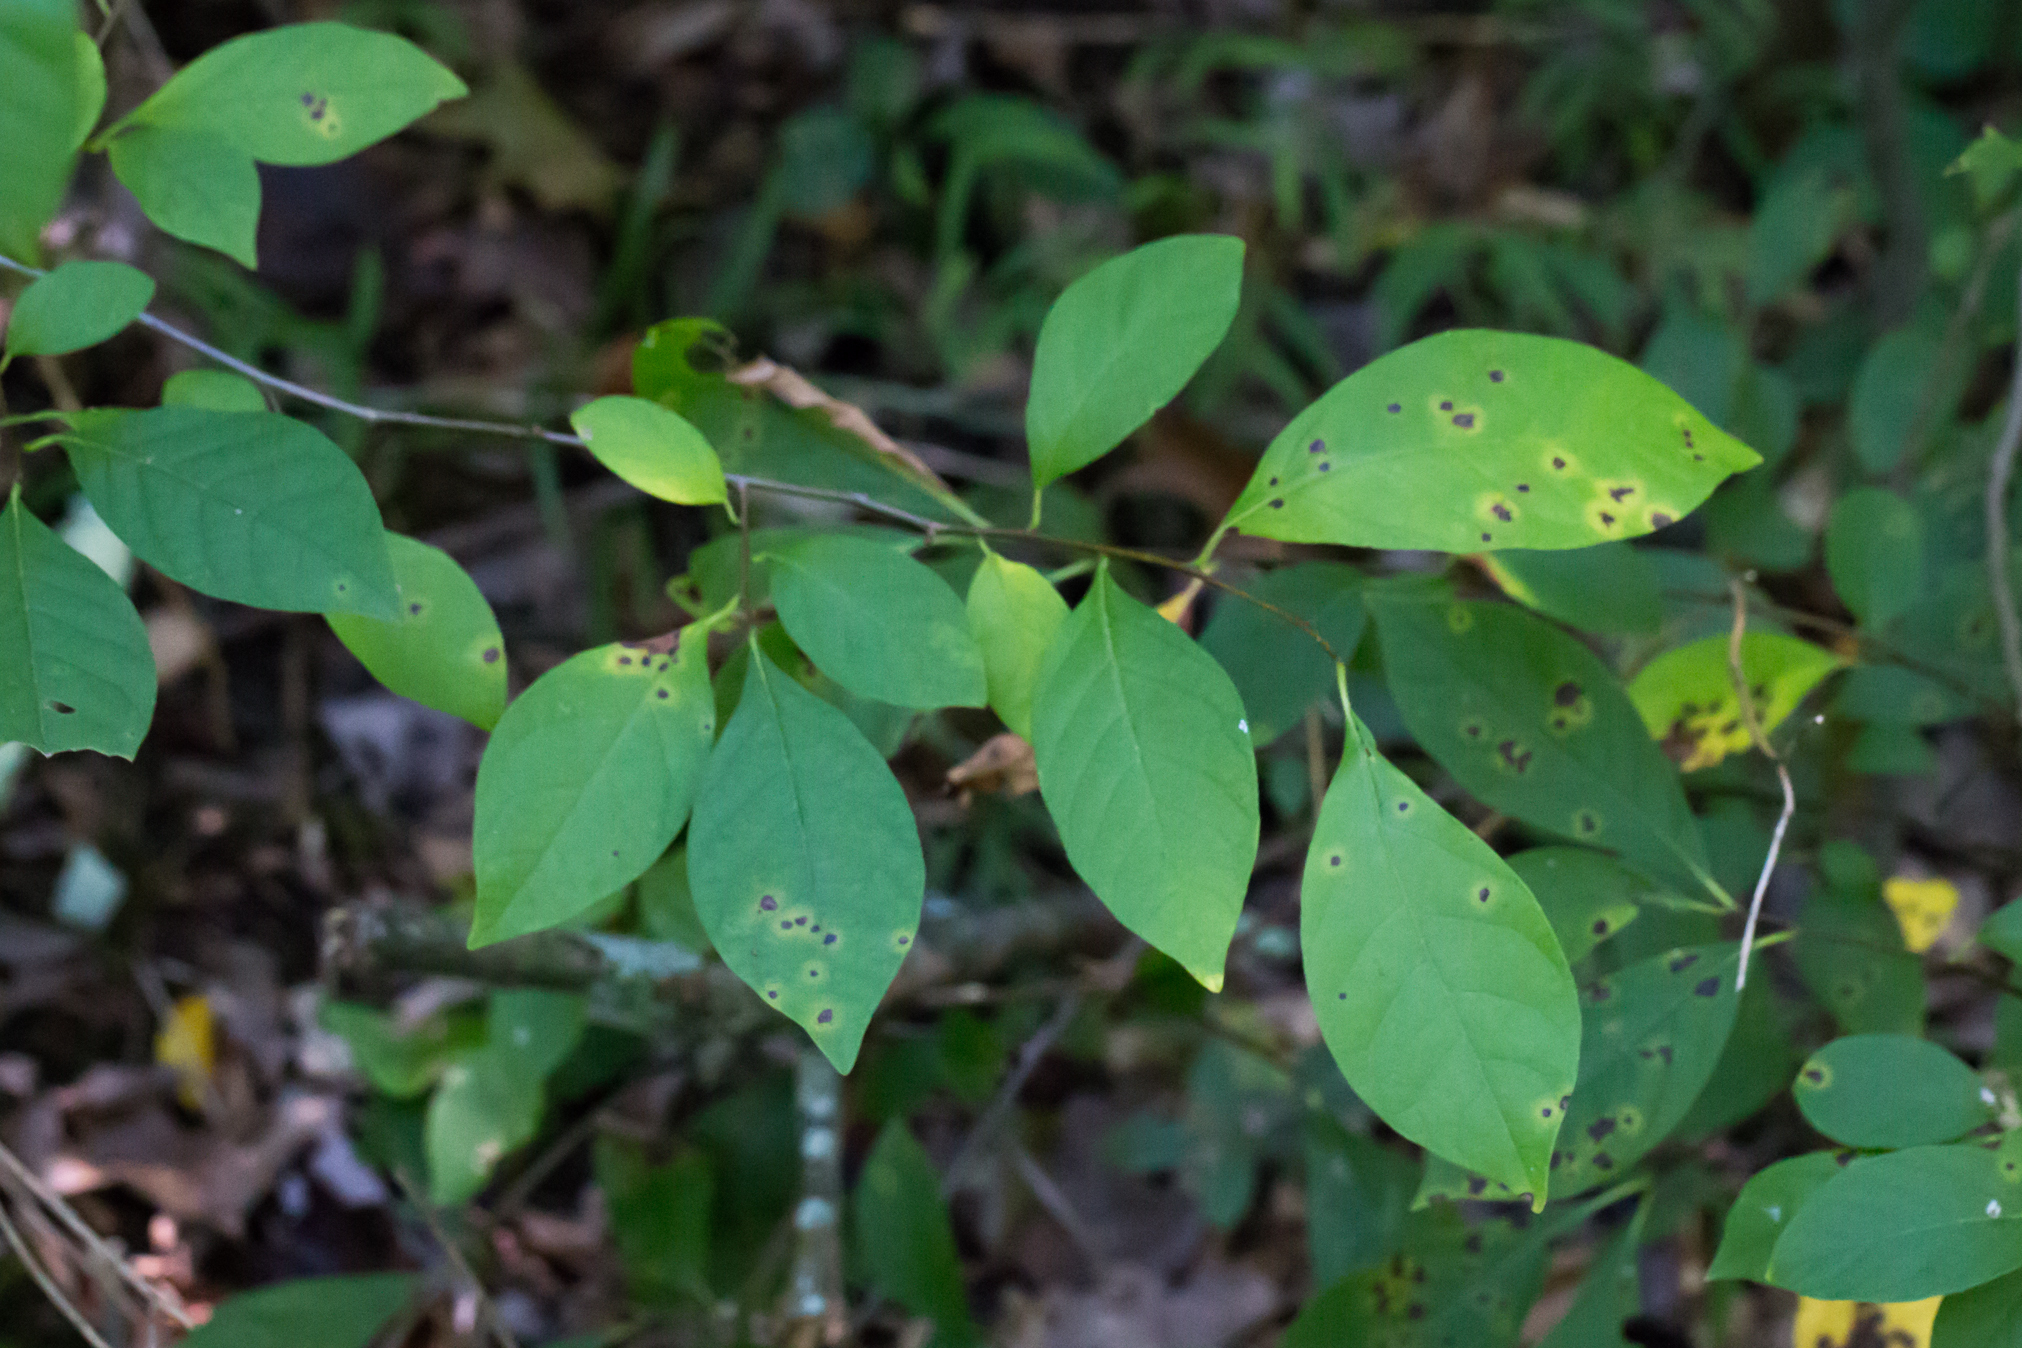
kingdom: Plantae
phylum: Tracheophyta
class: Magnoliopsida
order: Laurales
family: Lauraceae
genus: Lindera
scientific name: Lindera benzoin
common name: Spicebush
